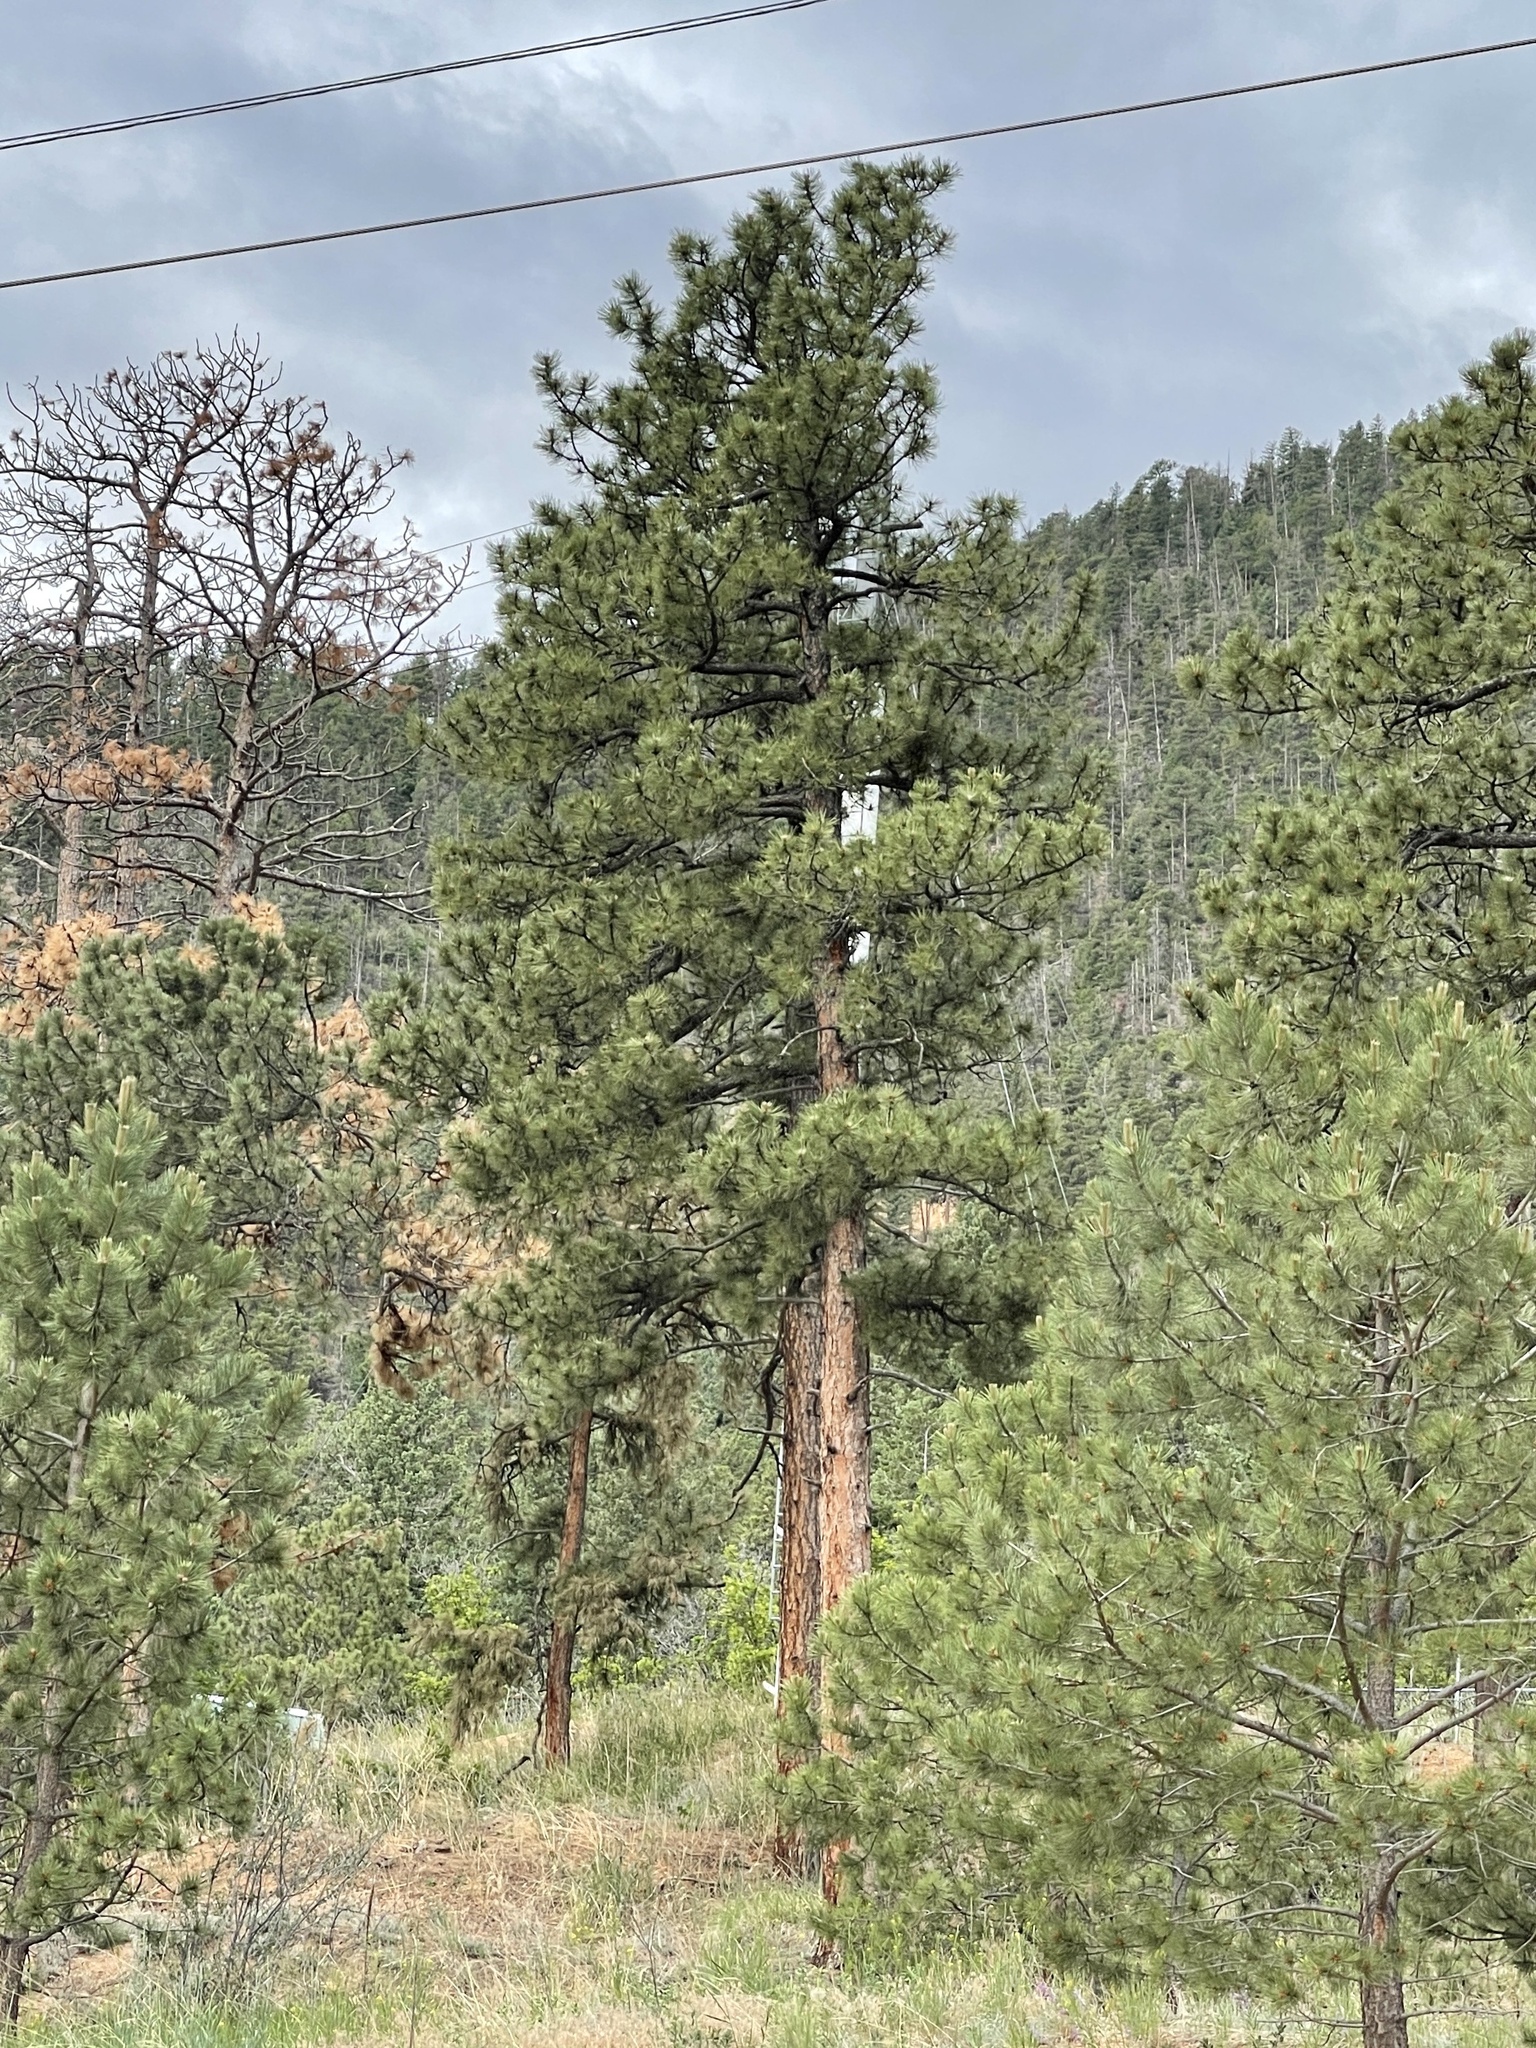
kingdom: Plantae
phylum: Tracheophyta
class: Pinopsida
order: Pinales
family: Pinaceae
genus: Pinus
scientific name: Pinus ponderosa
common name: Western yellow-pine
